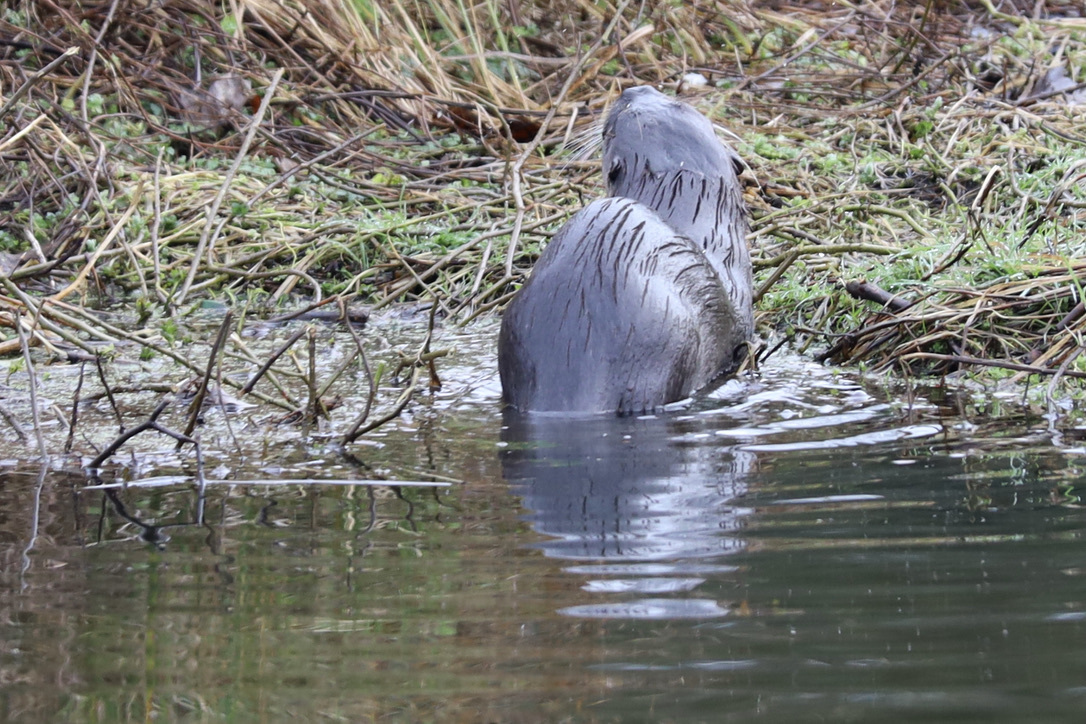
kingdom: Animalia
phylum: Chordata
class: Mammalia
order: Carnivora
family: Mustelidae
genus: Lontra
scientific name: Lontra canadensis
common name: North american river otter
